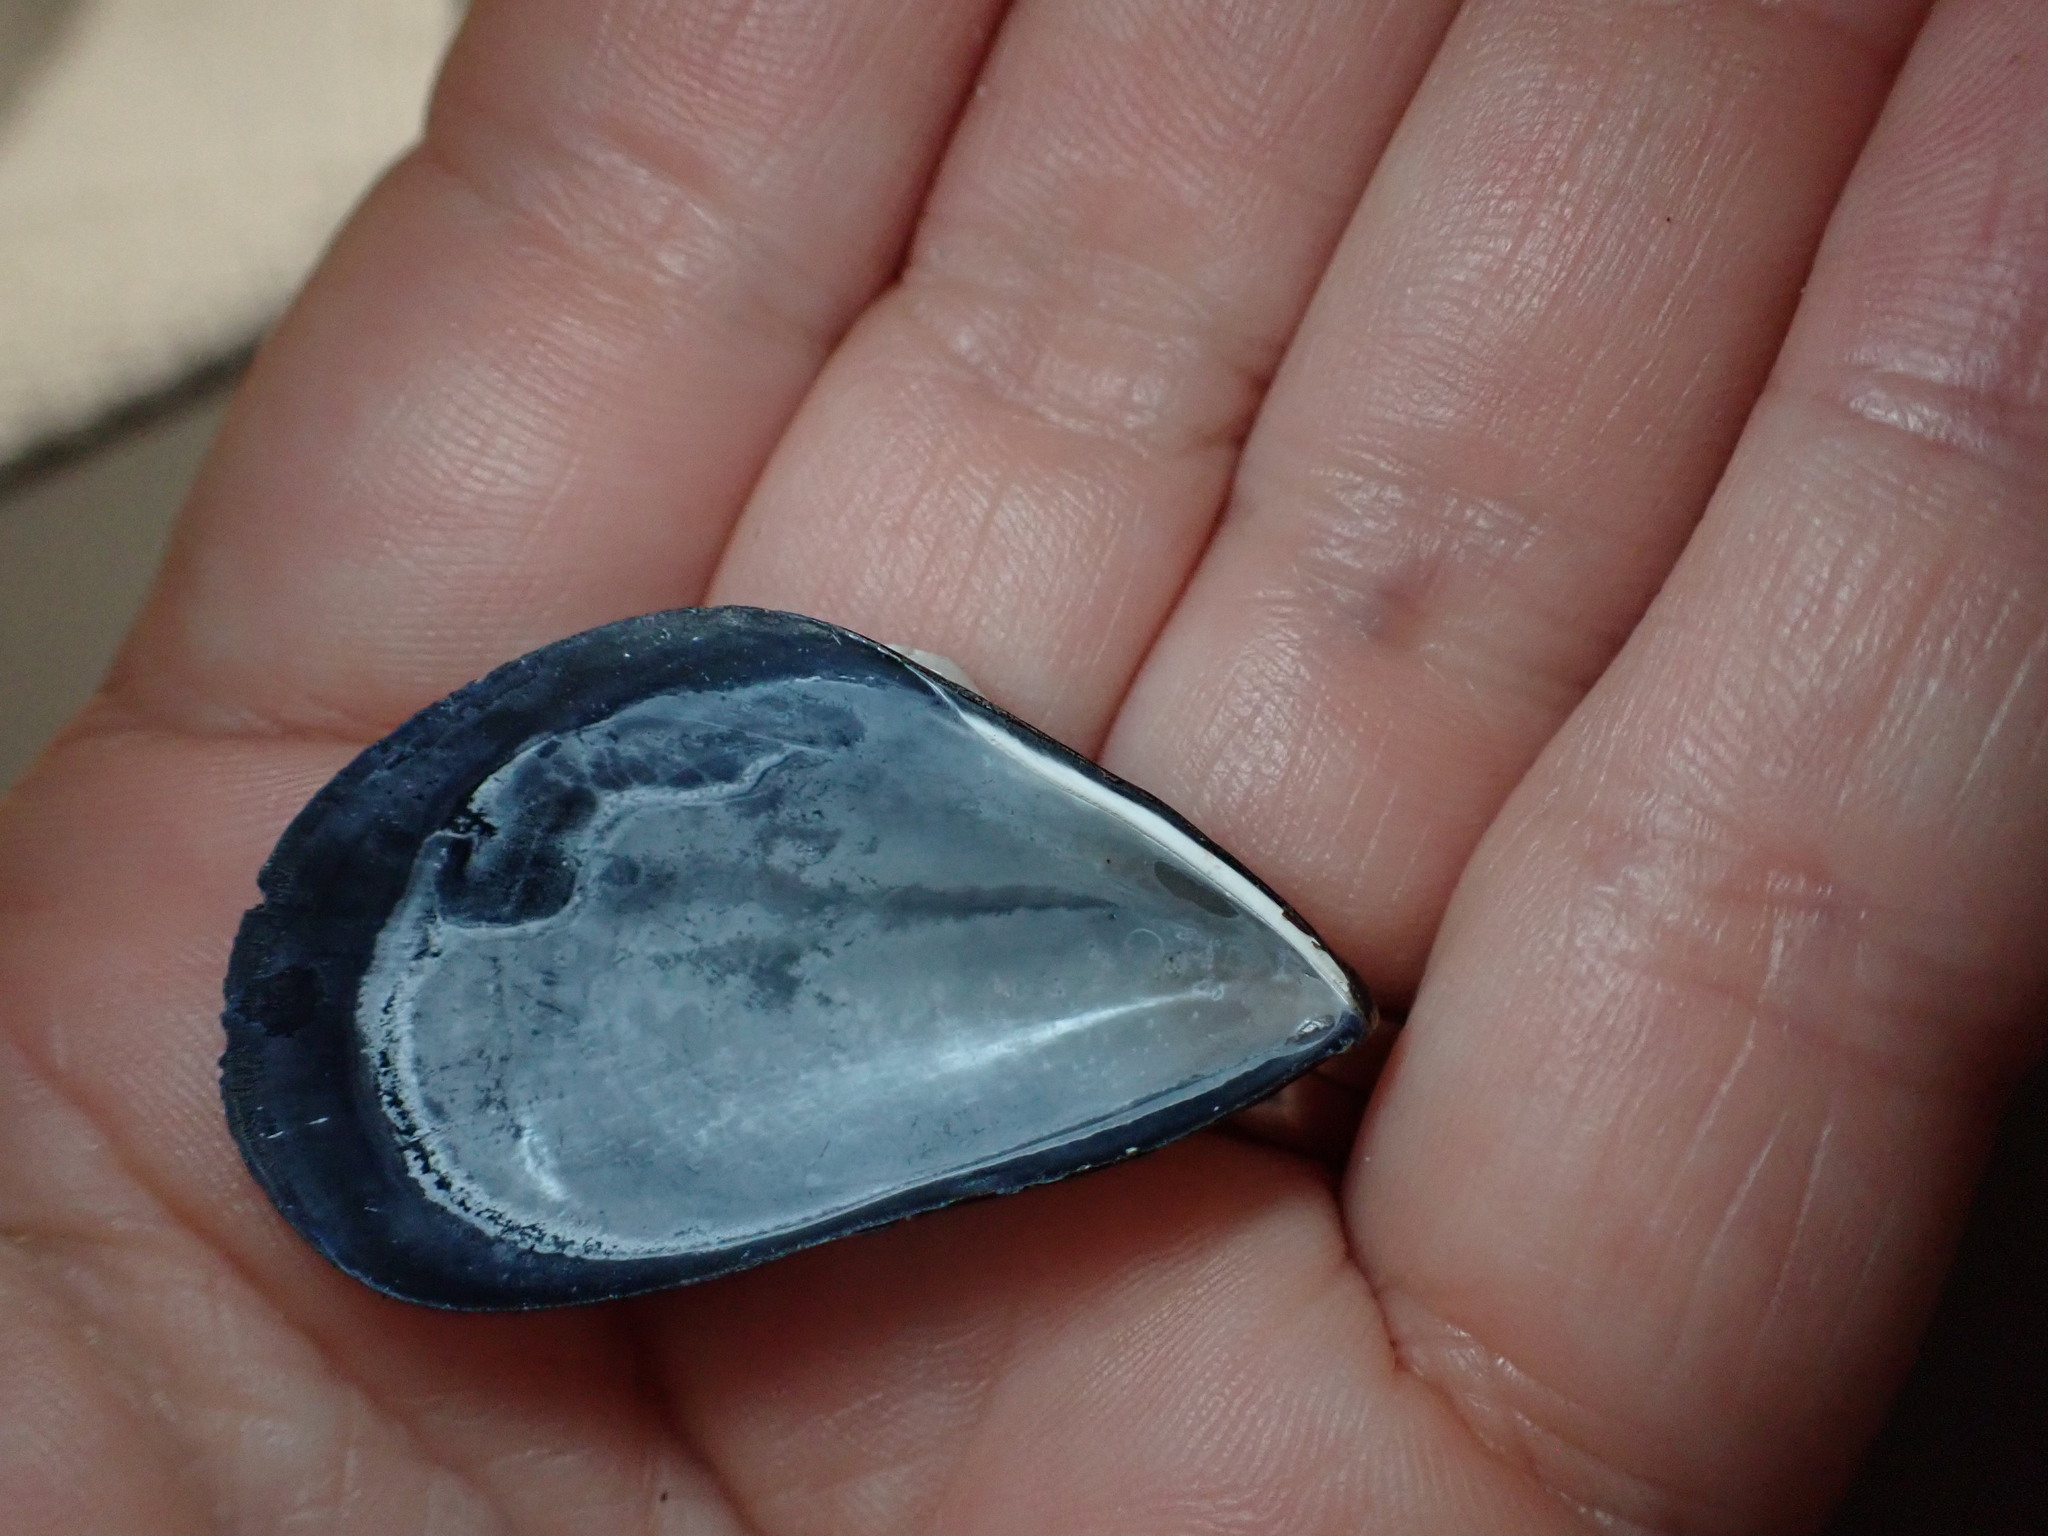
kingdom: Animalia
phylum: Mollusca
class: Bivalvia
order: Mytilida
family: Mytilidae
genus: Mytilus
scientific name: Mytilus galloprovincialis
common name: Mediterranean mussel
